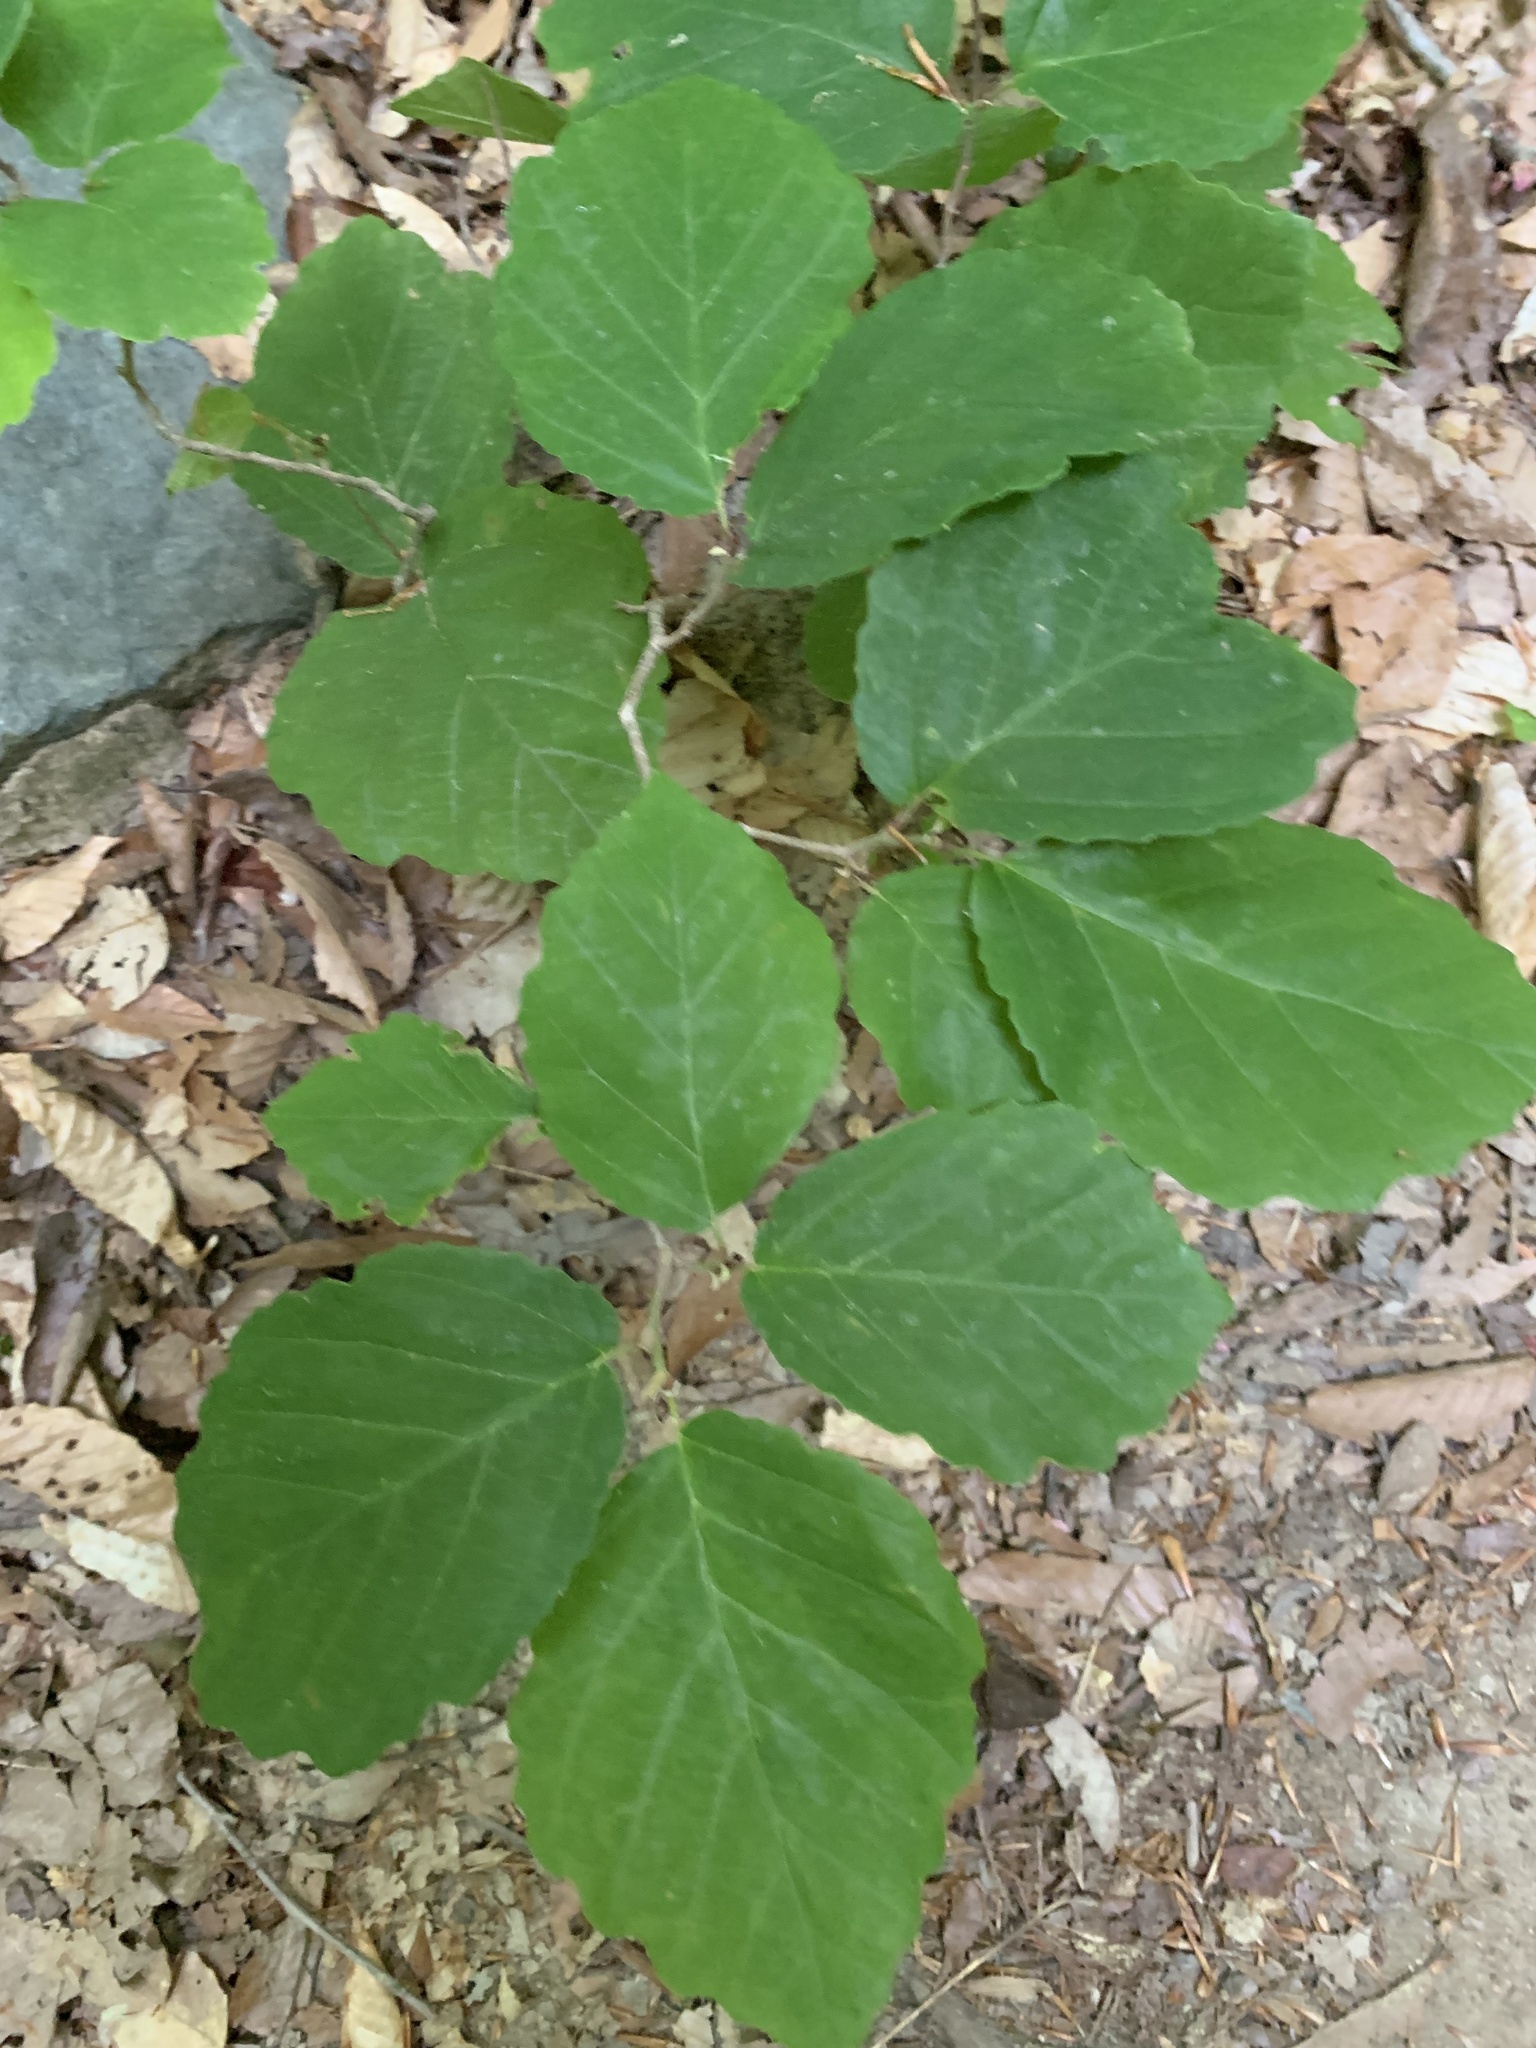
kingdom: Plantae
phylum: Tracheophyta
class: Magnoliopsida
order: Saxifragales
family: Hamamelidaceae
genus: Hamamelis
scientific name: Hamamelis virginiana
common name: Witch-hazel
